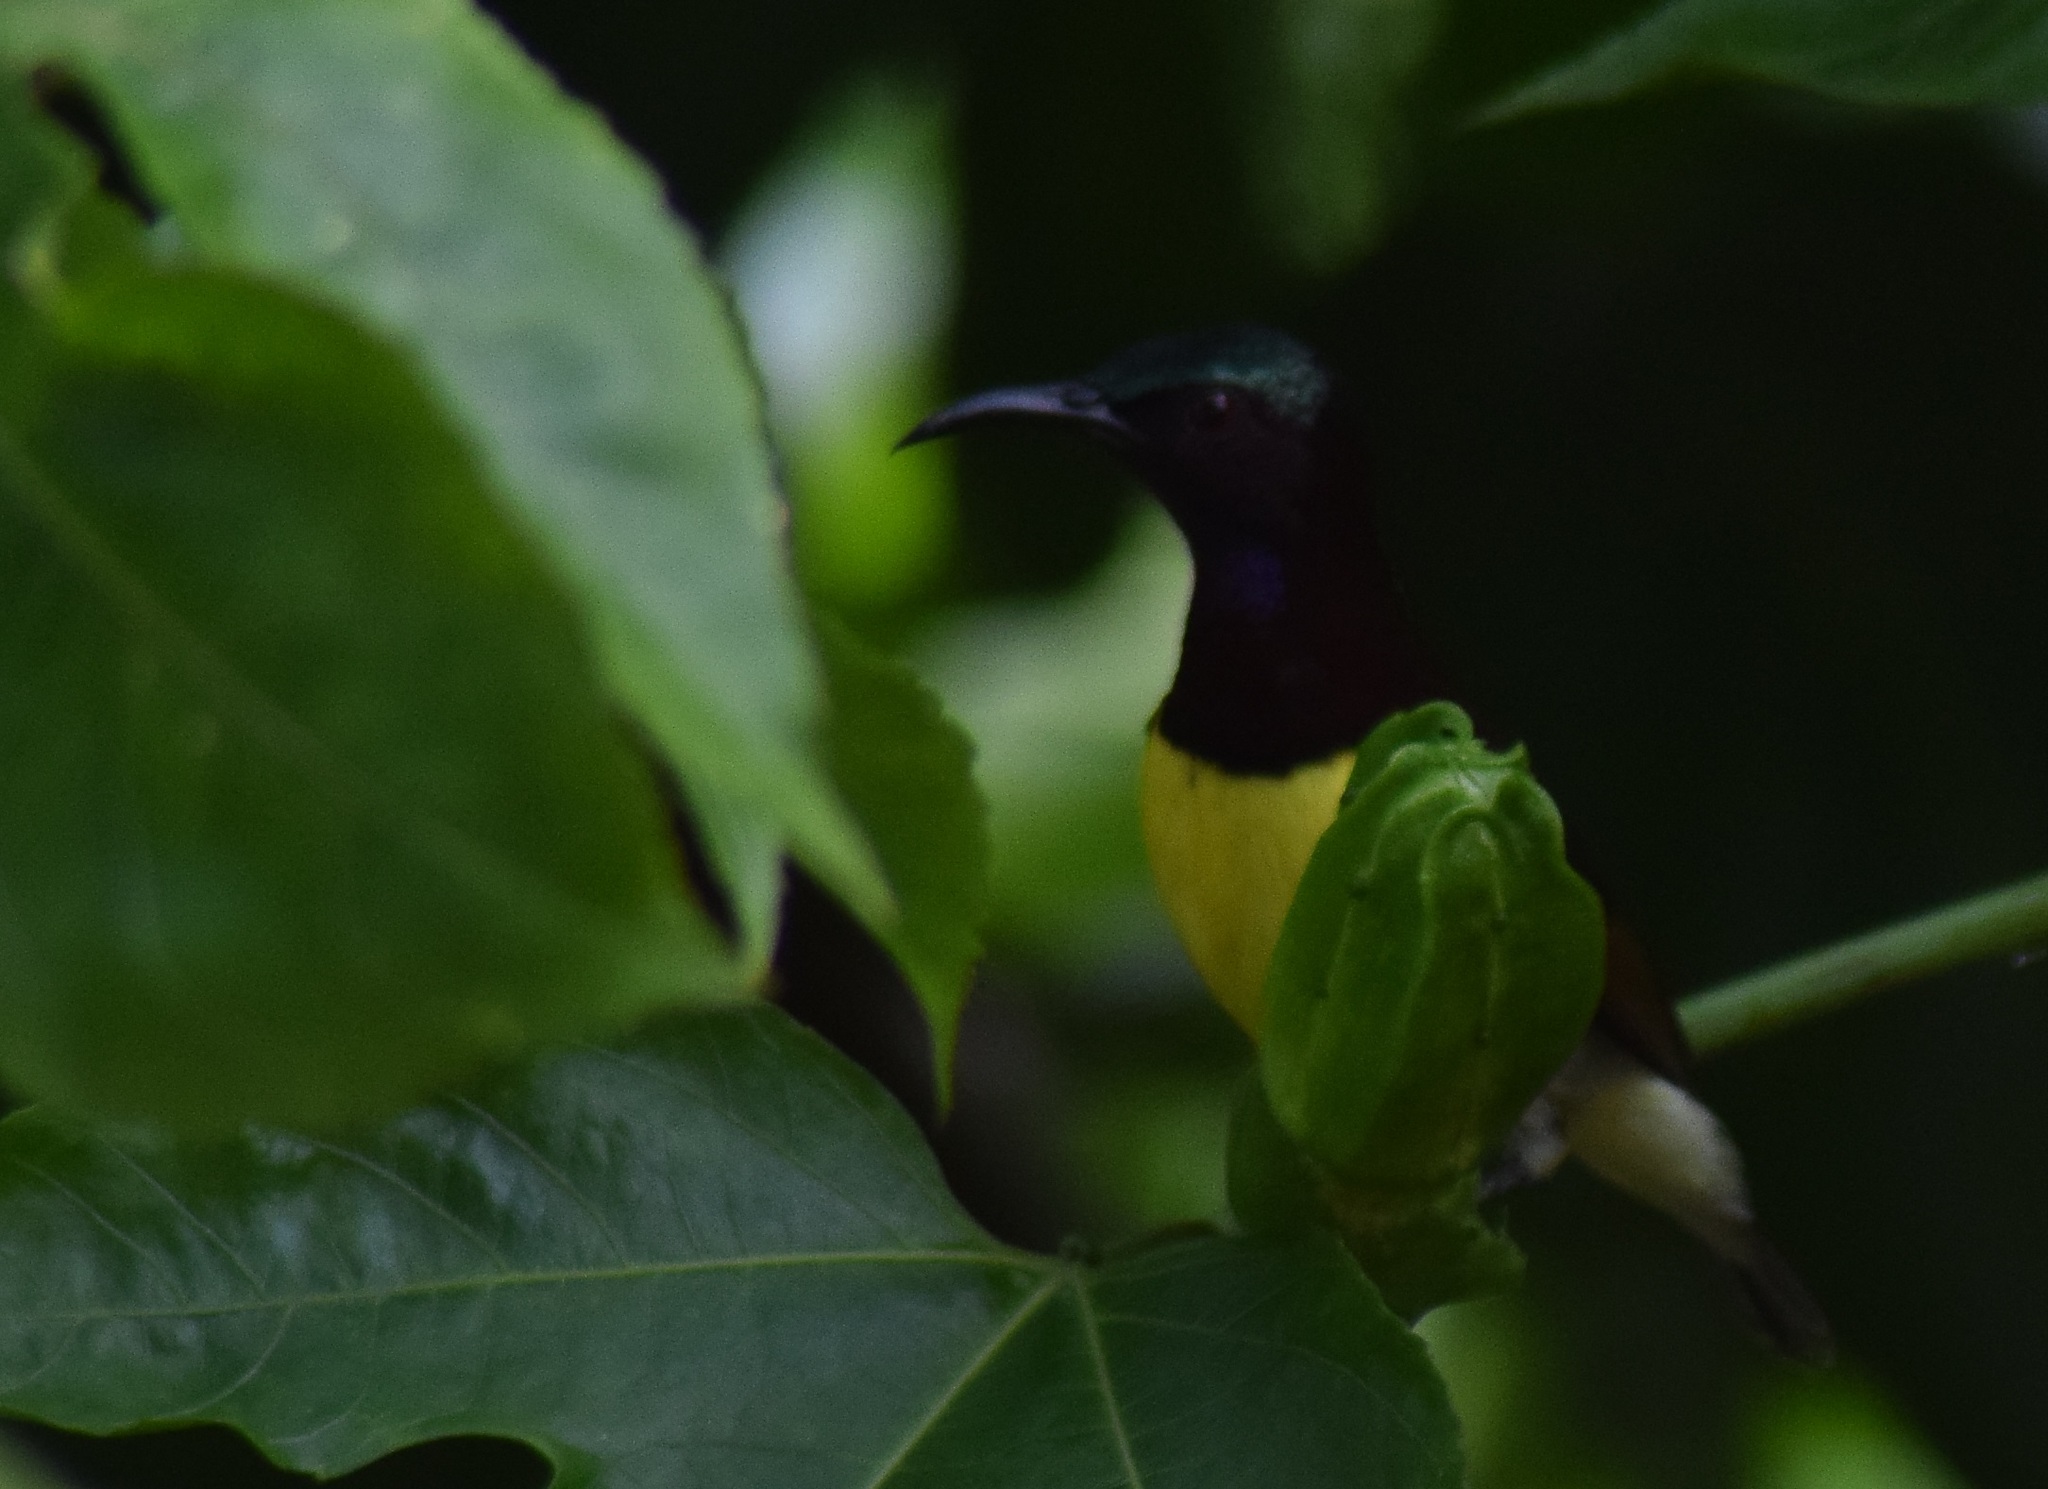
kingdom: Animalia
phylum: Chordata
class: Aves
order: Passeriformes
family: Nectariniidae
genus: Leptocoma
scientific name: Leptocoma zeylonica
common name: Purple-rumped sunbird
